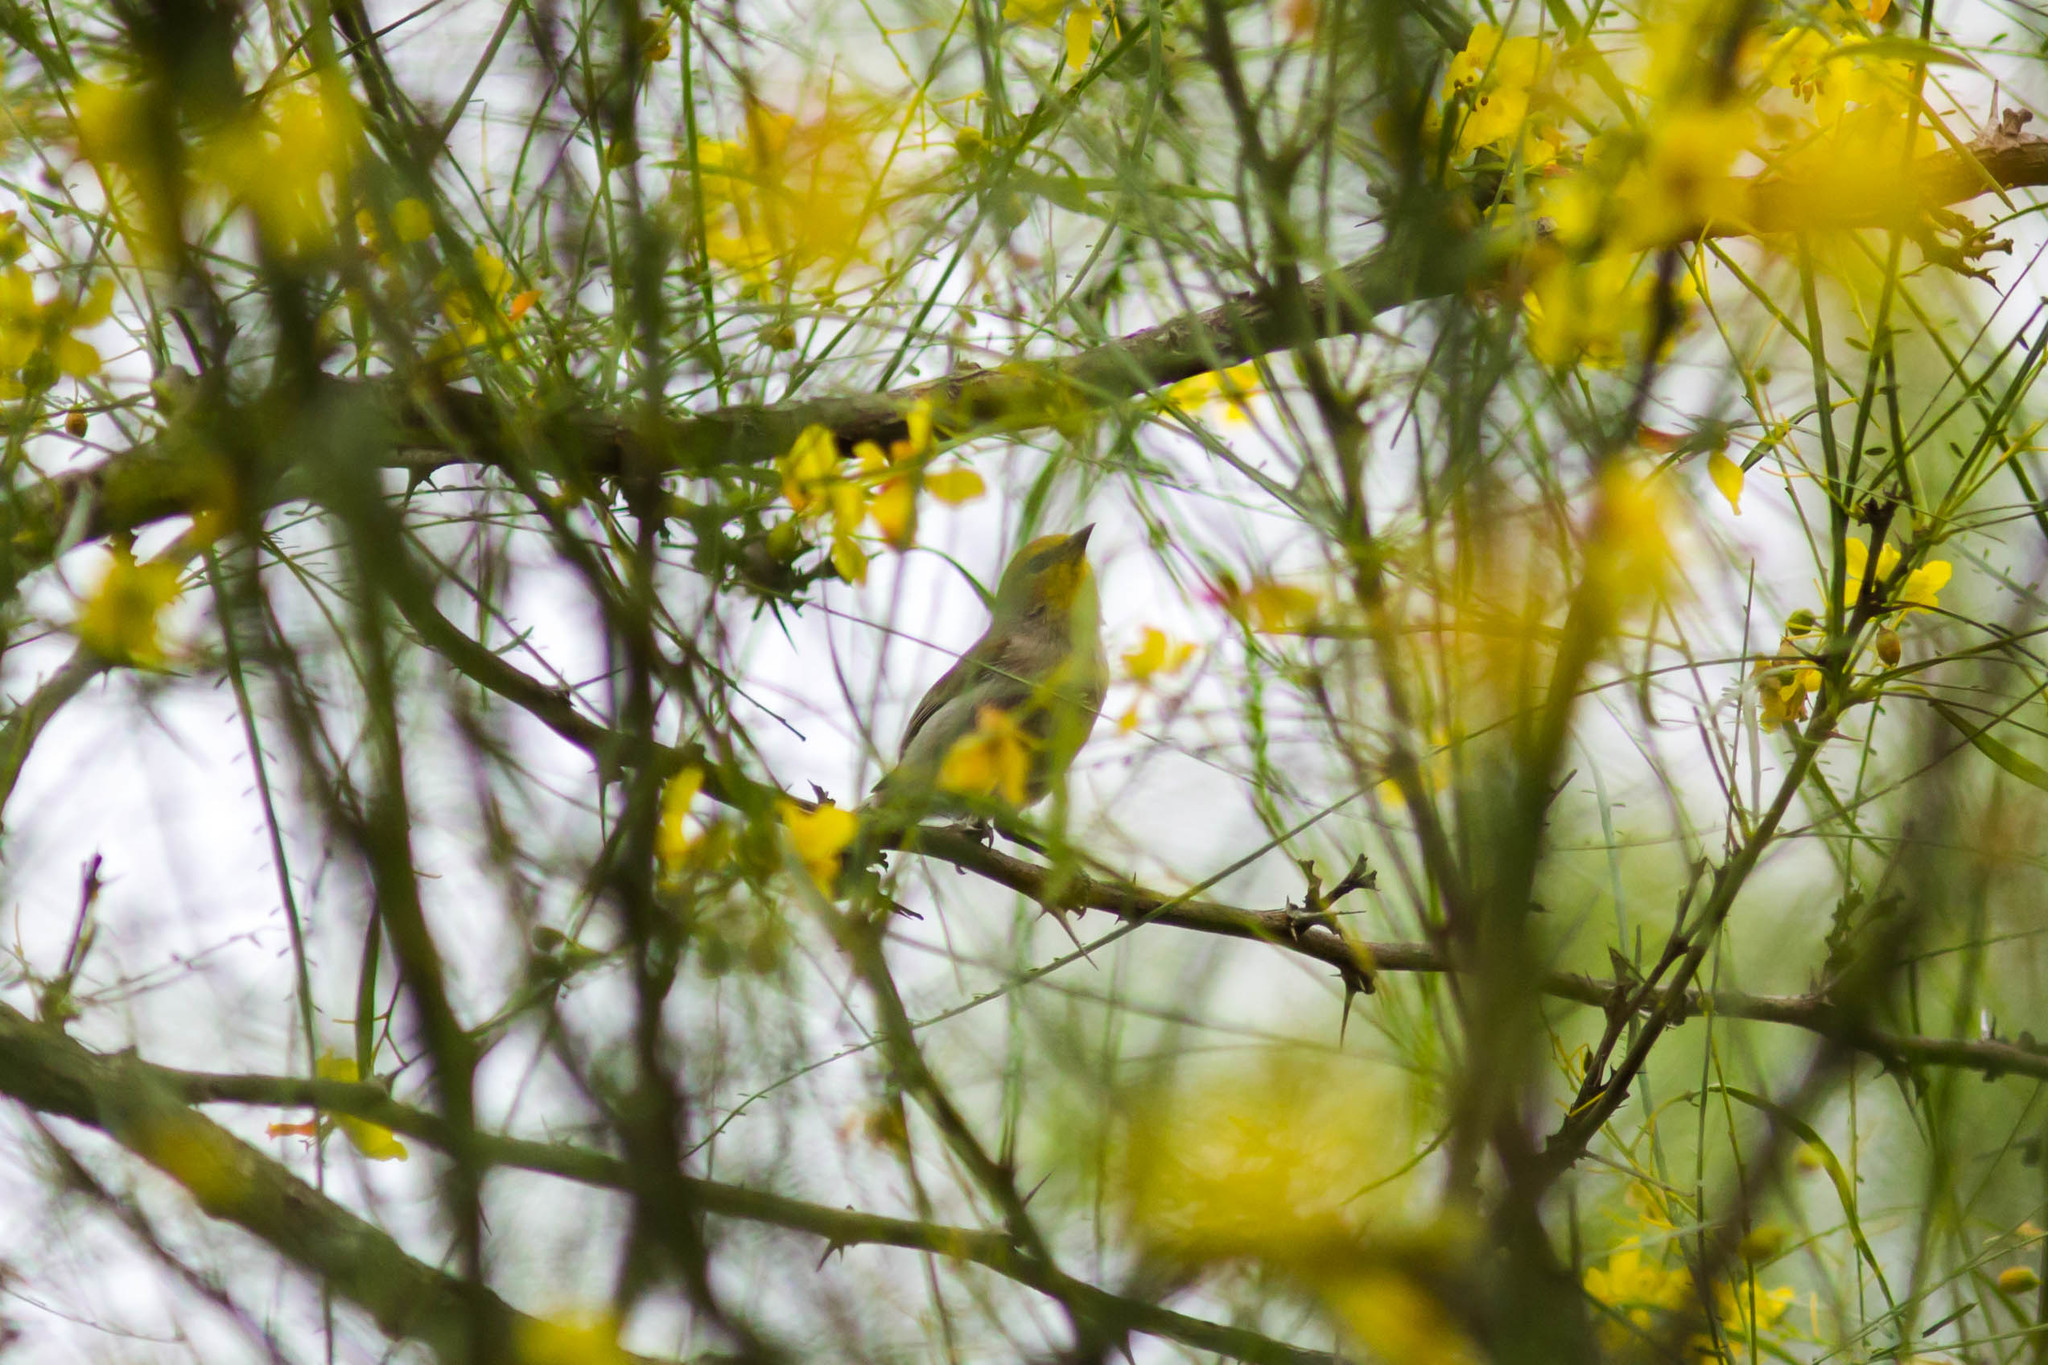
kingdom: Animalia
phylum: Chordata
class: Aves
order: Passeriformes
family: Remizidae
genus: Auriparus
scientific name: Auriparus flaviceps
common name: Verdin
